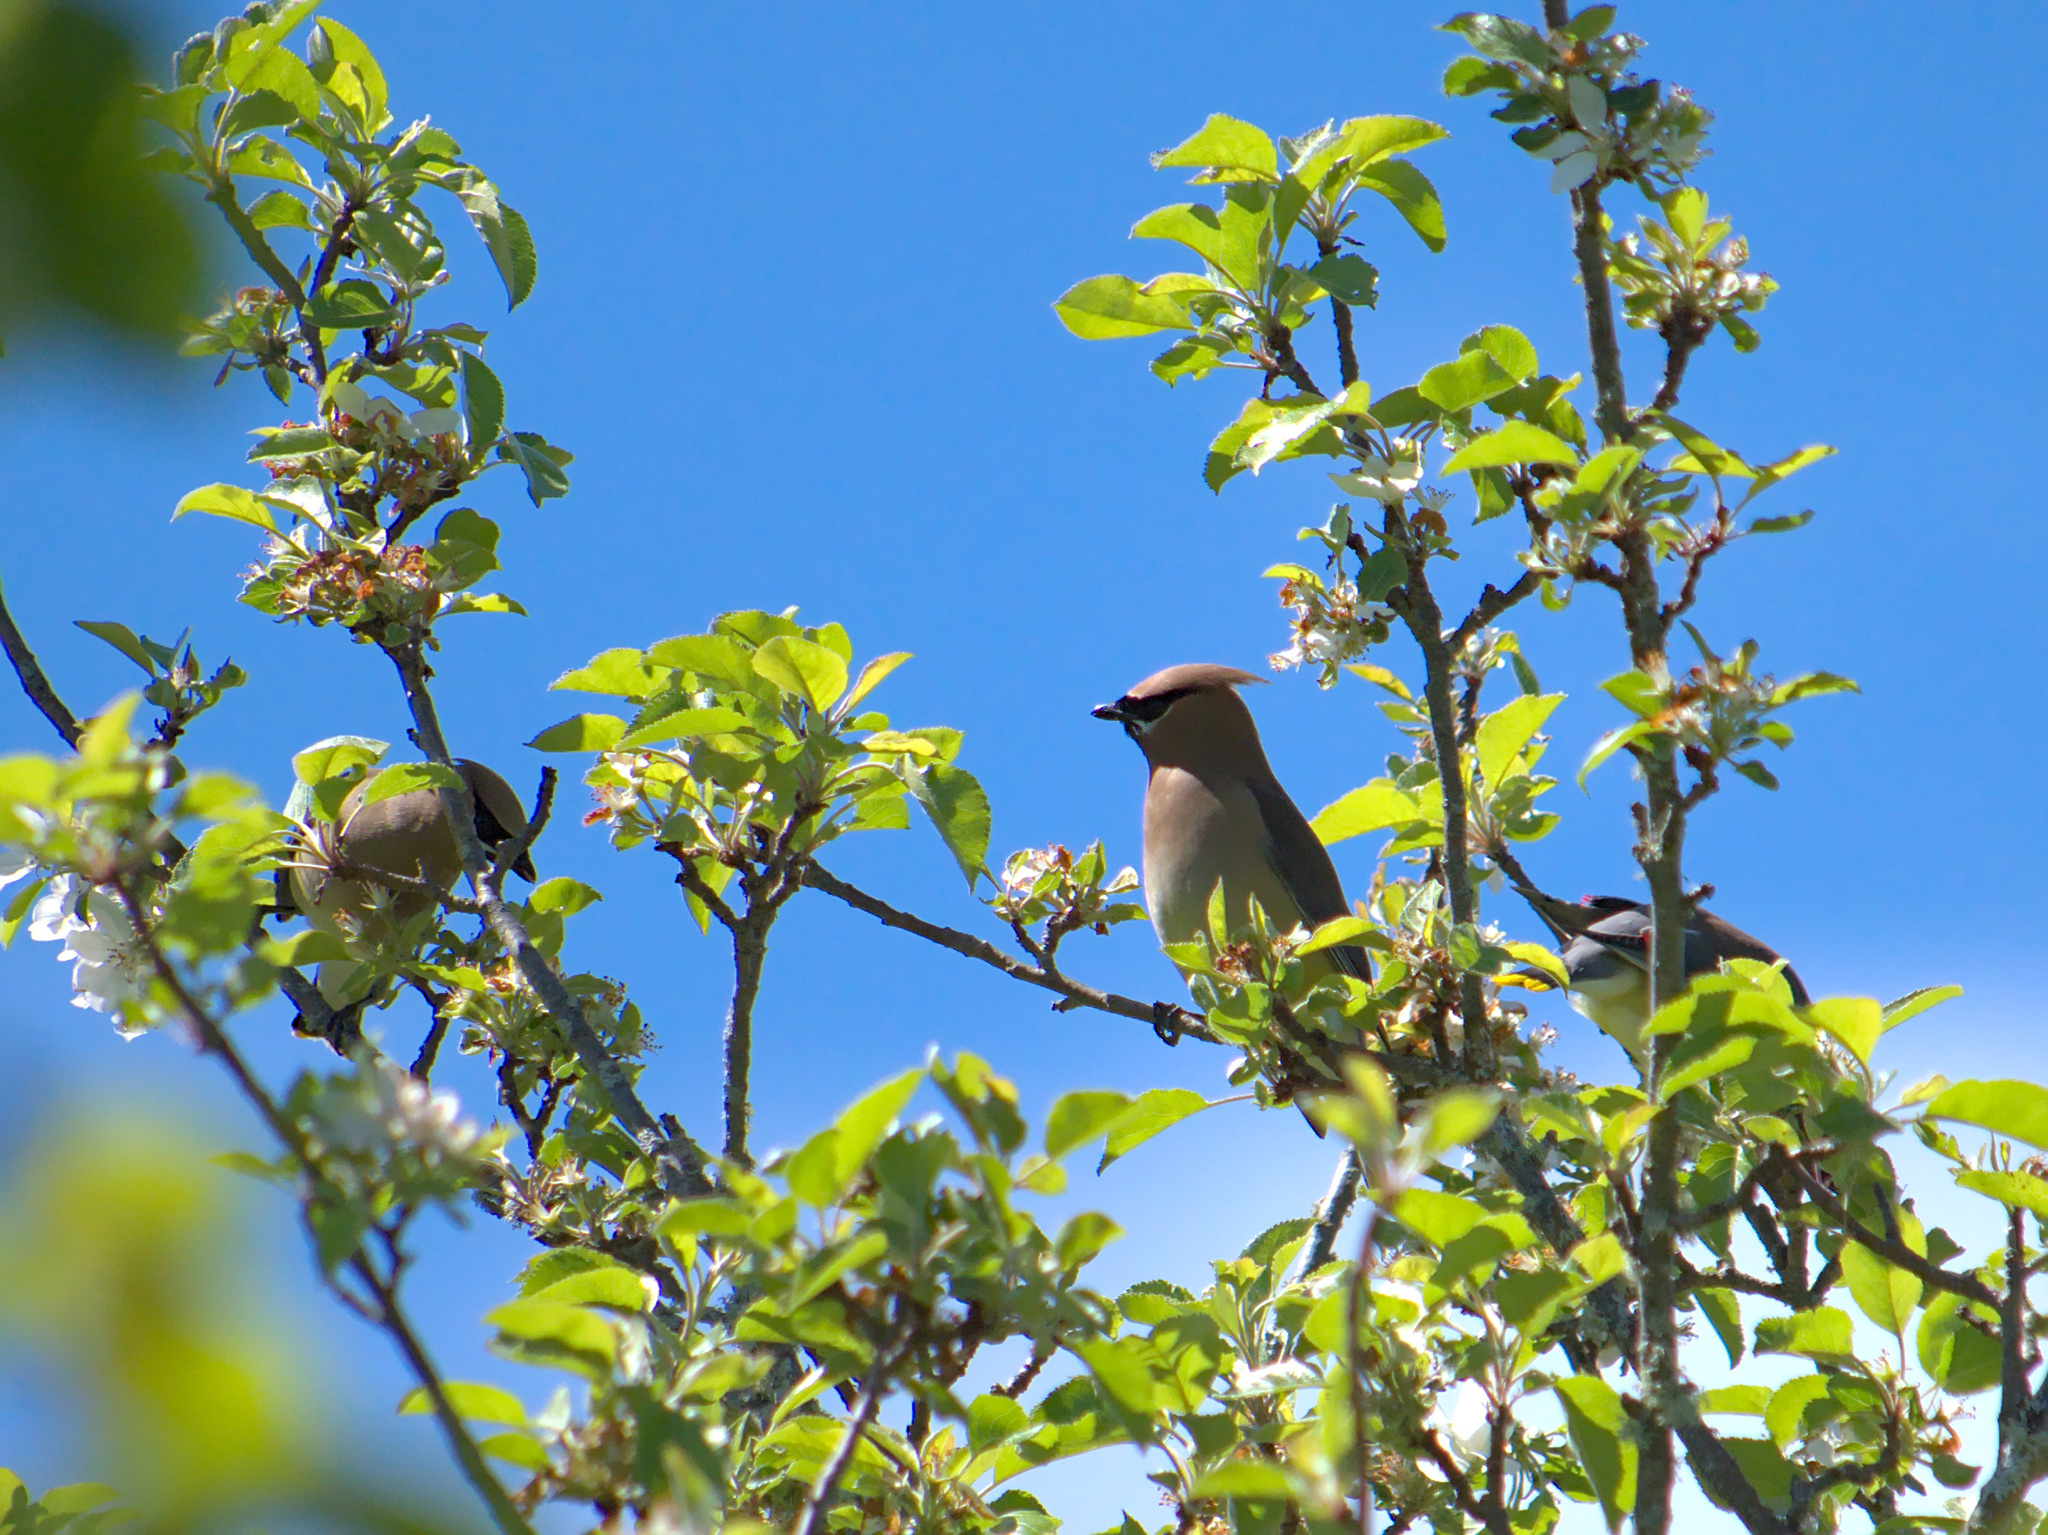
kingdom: Animalia
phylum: Chordata
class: Aves
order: Passeriformes
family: Bombycillidae
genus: Bombycilla
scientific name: Bombycilla cedrorum
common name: Cedar waxwing
